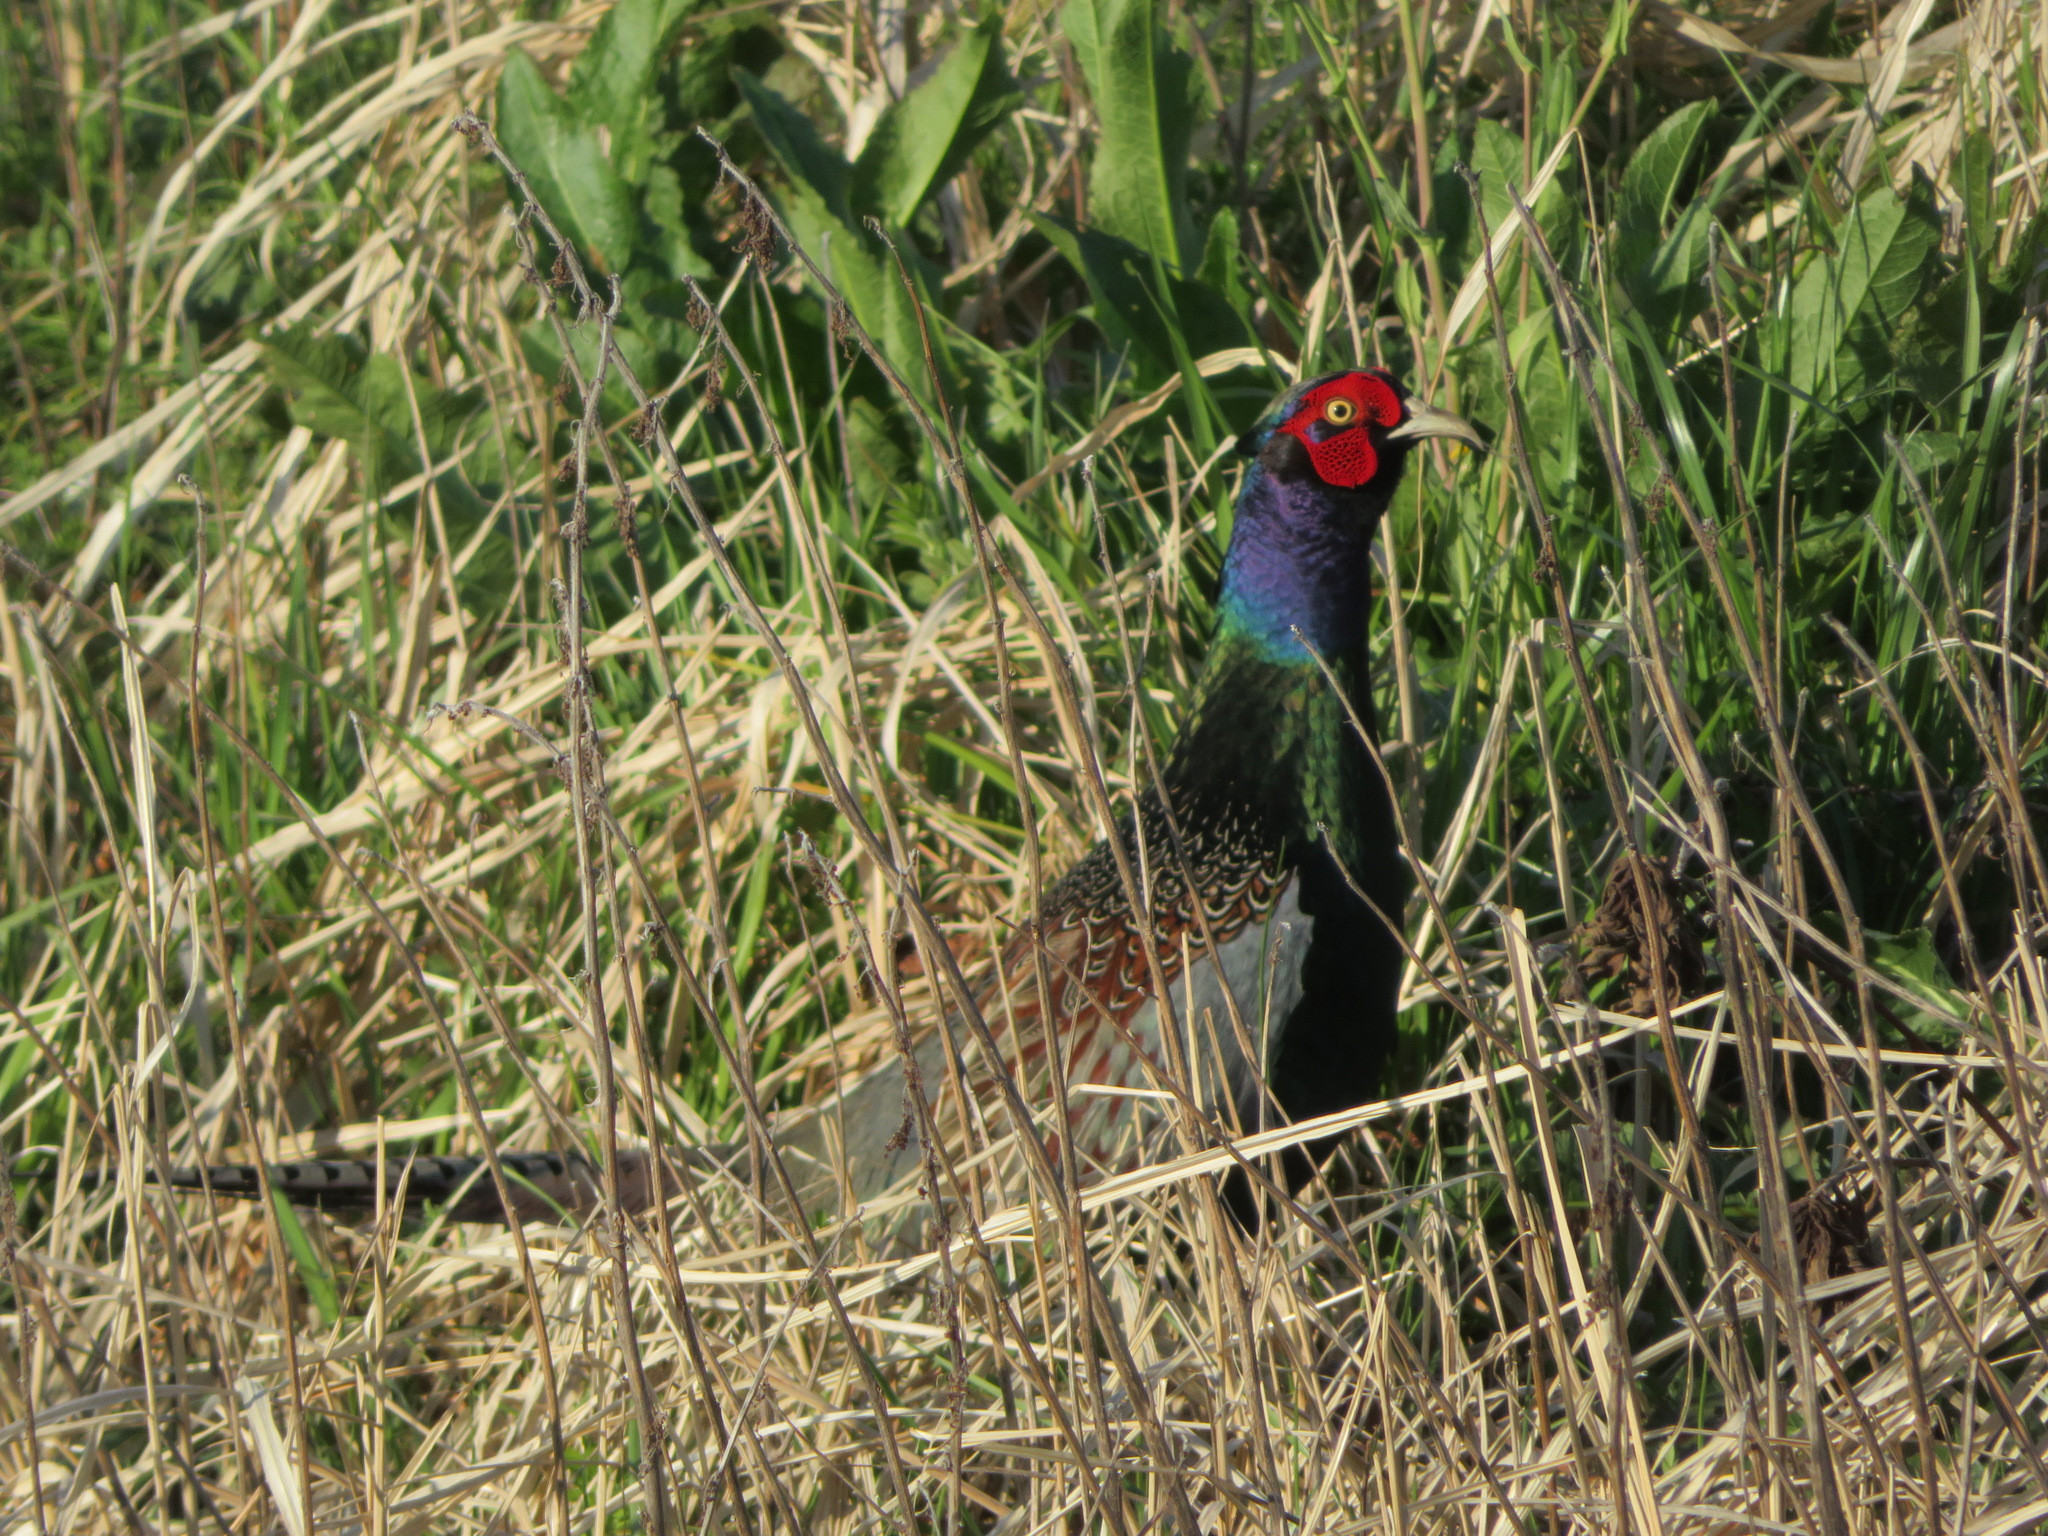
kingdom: Animalia
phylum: Chordata
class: Aves
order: Galliformes
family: Phasianidae
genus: Phasianus
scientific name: Phasianus versicolor
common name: Green pheasant
